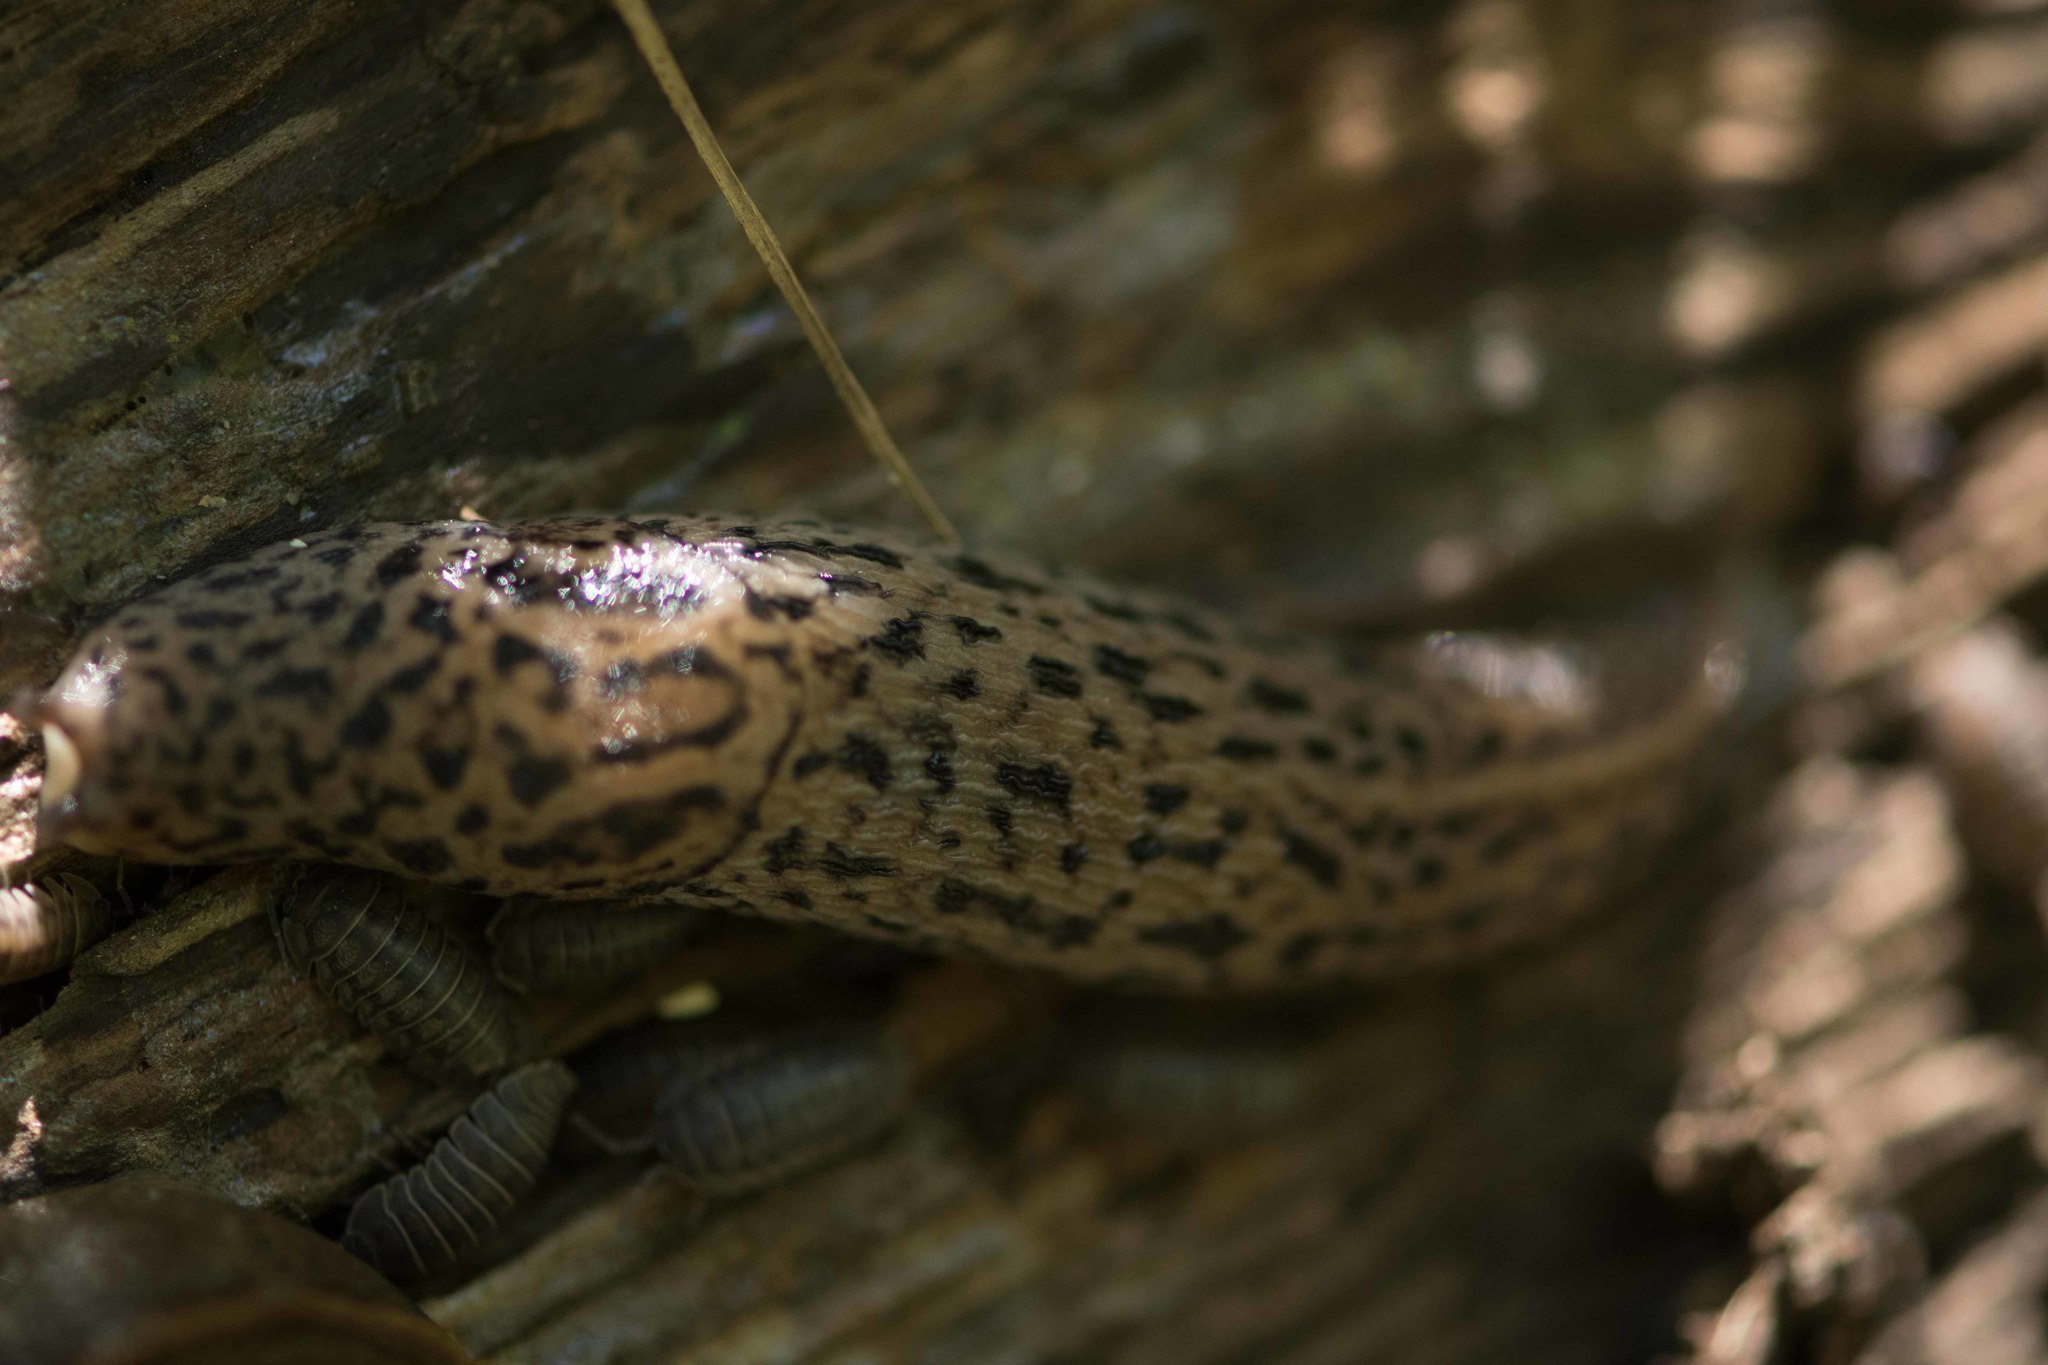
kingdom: Animalia
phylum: Mollusca
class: Gastropoda
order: Stylommatophora
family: Limacidae
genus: Limax
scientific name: Limax maximus
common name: Great grey slug
